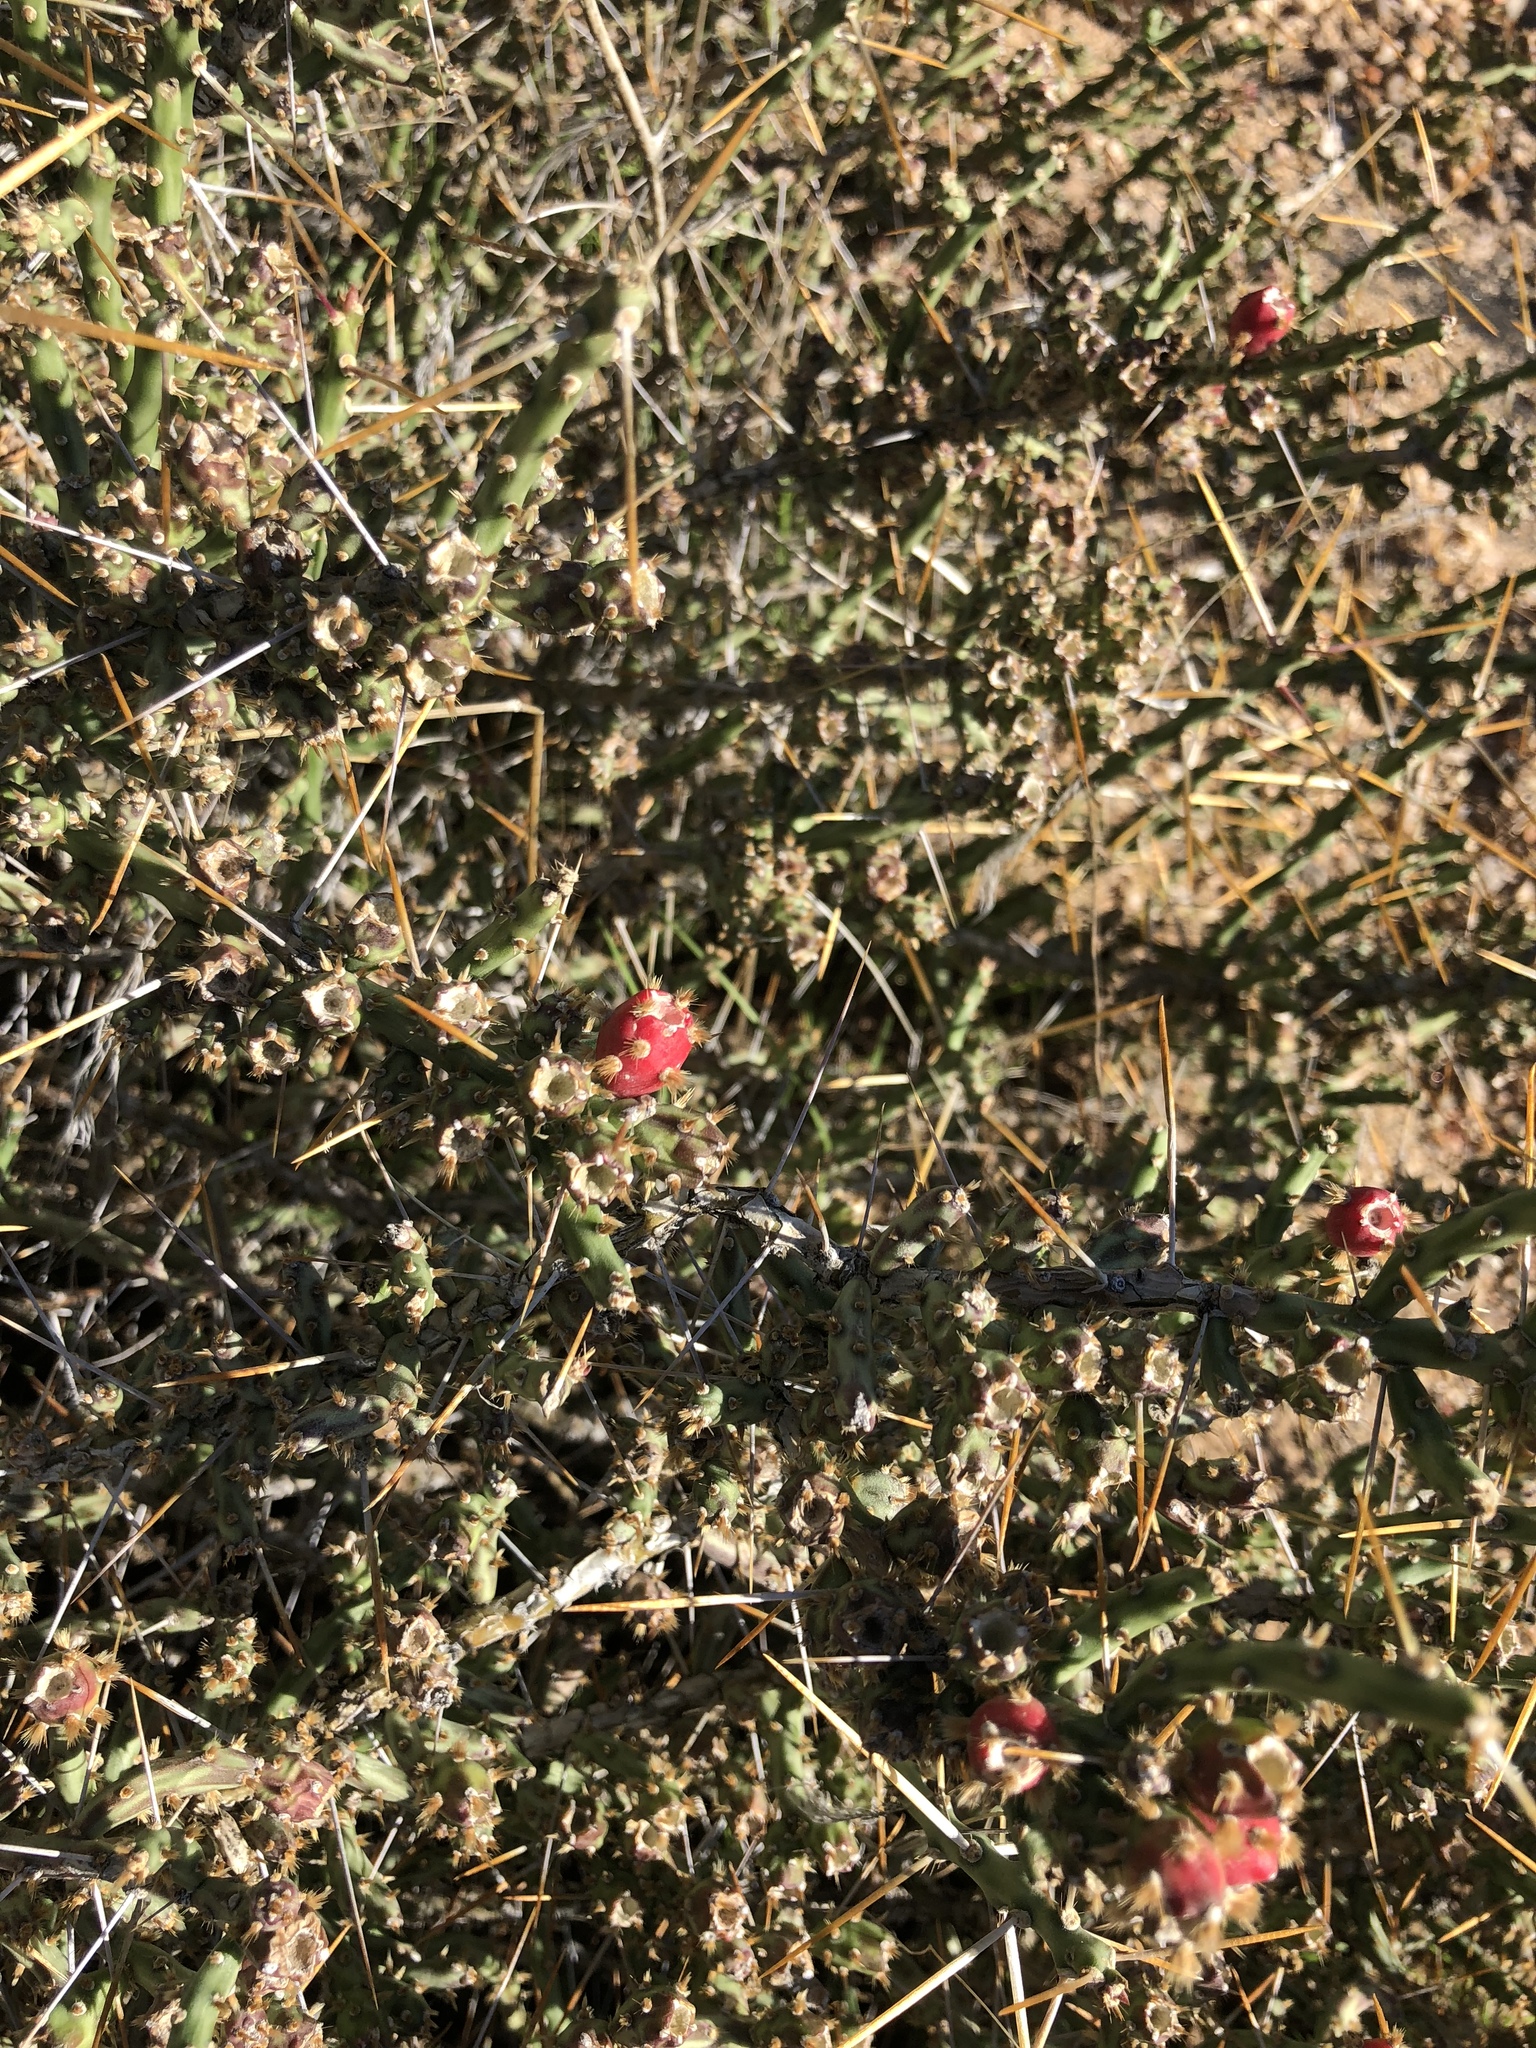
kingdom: Plantae
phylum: Tracheophyta
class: Magnoliopsida
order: Caryophyllales
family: Cactaceae
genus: Cylindropuntia
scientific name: Cylindropuntia leptocaulis
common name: Christmas cactus
